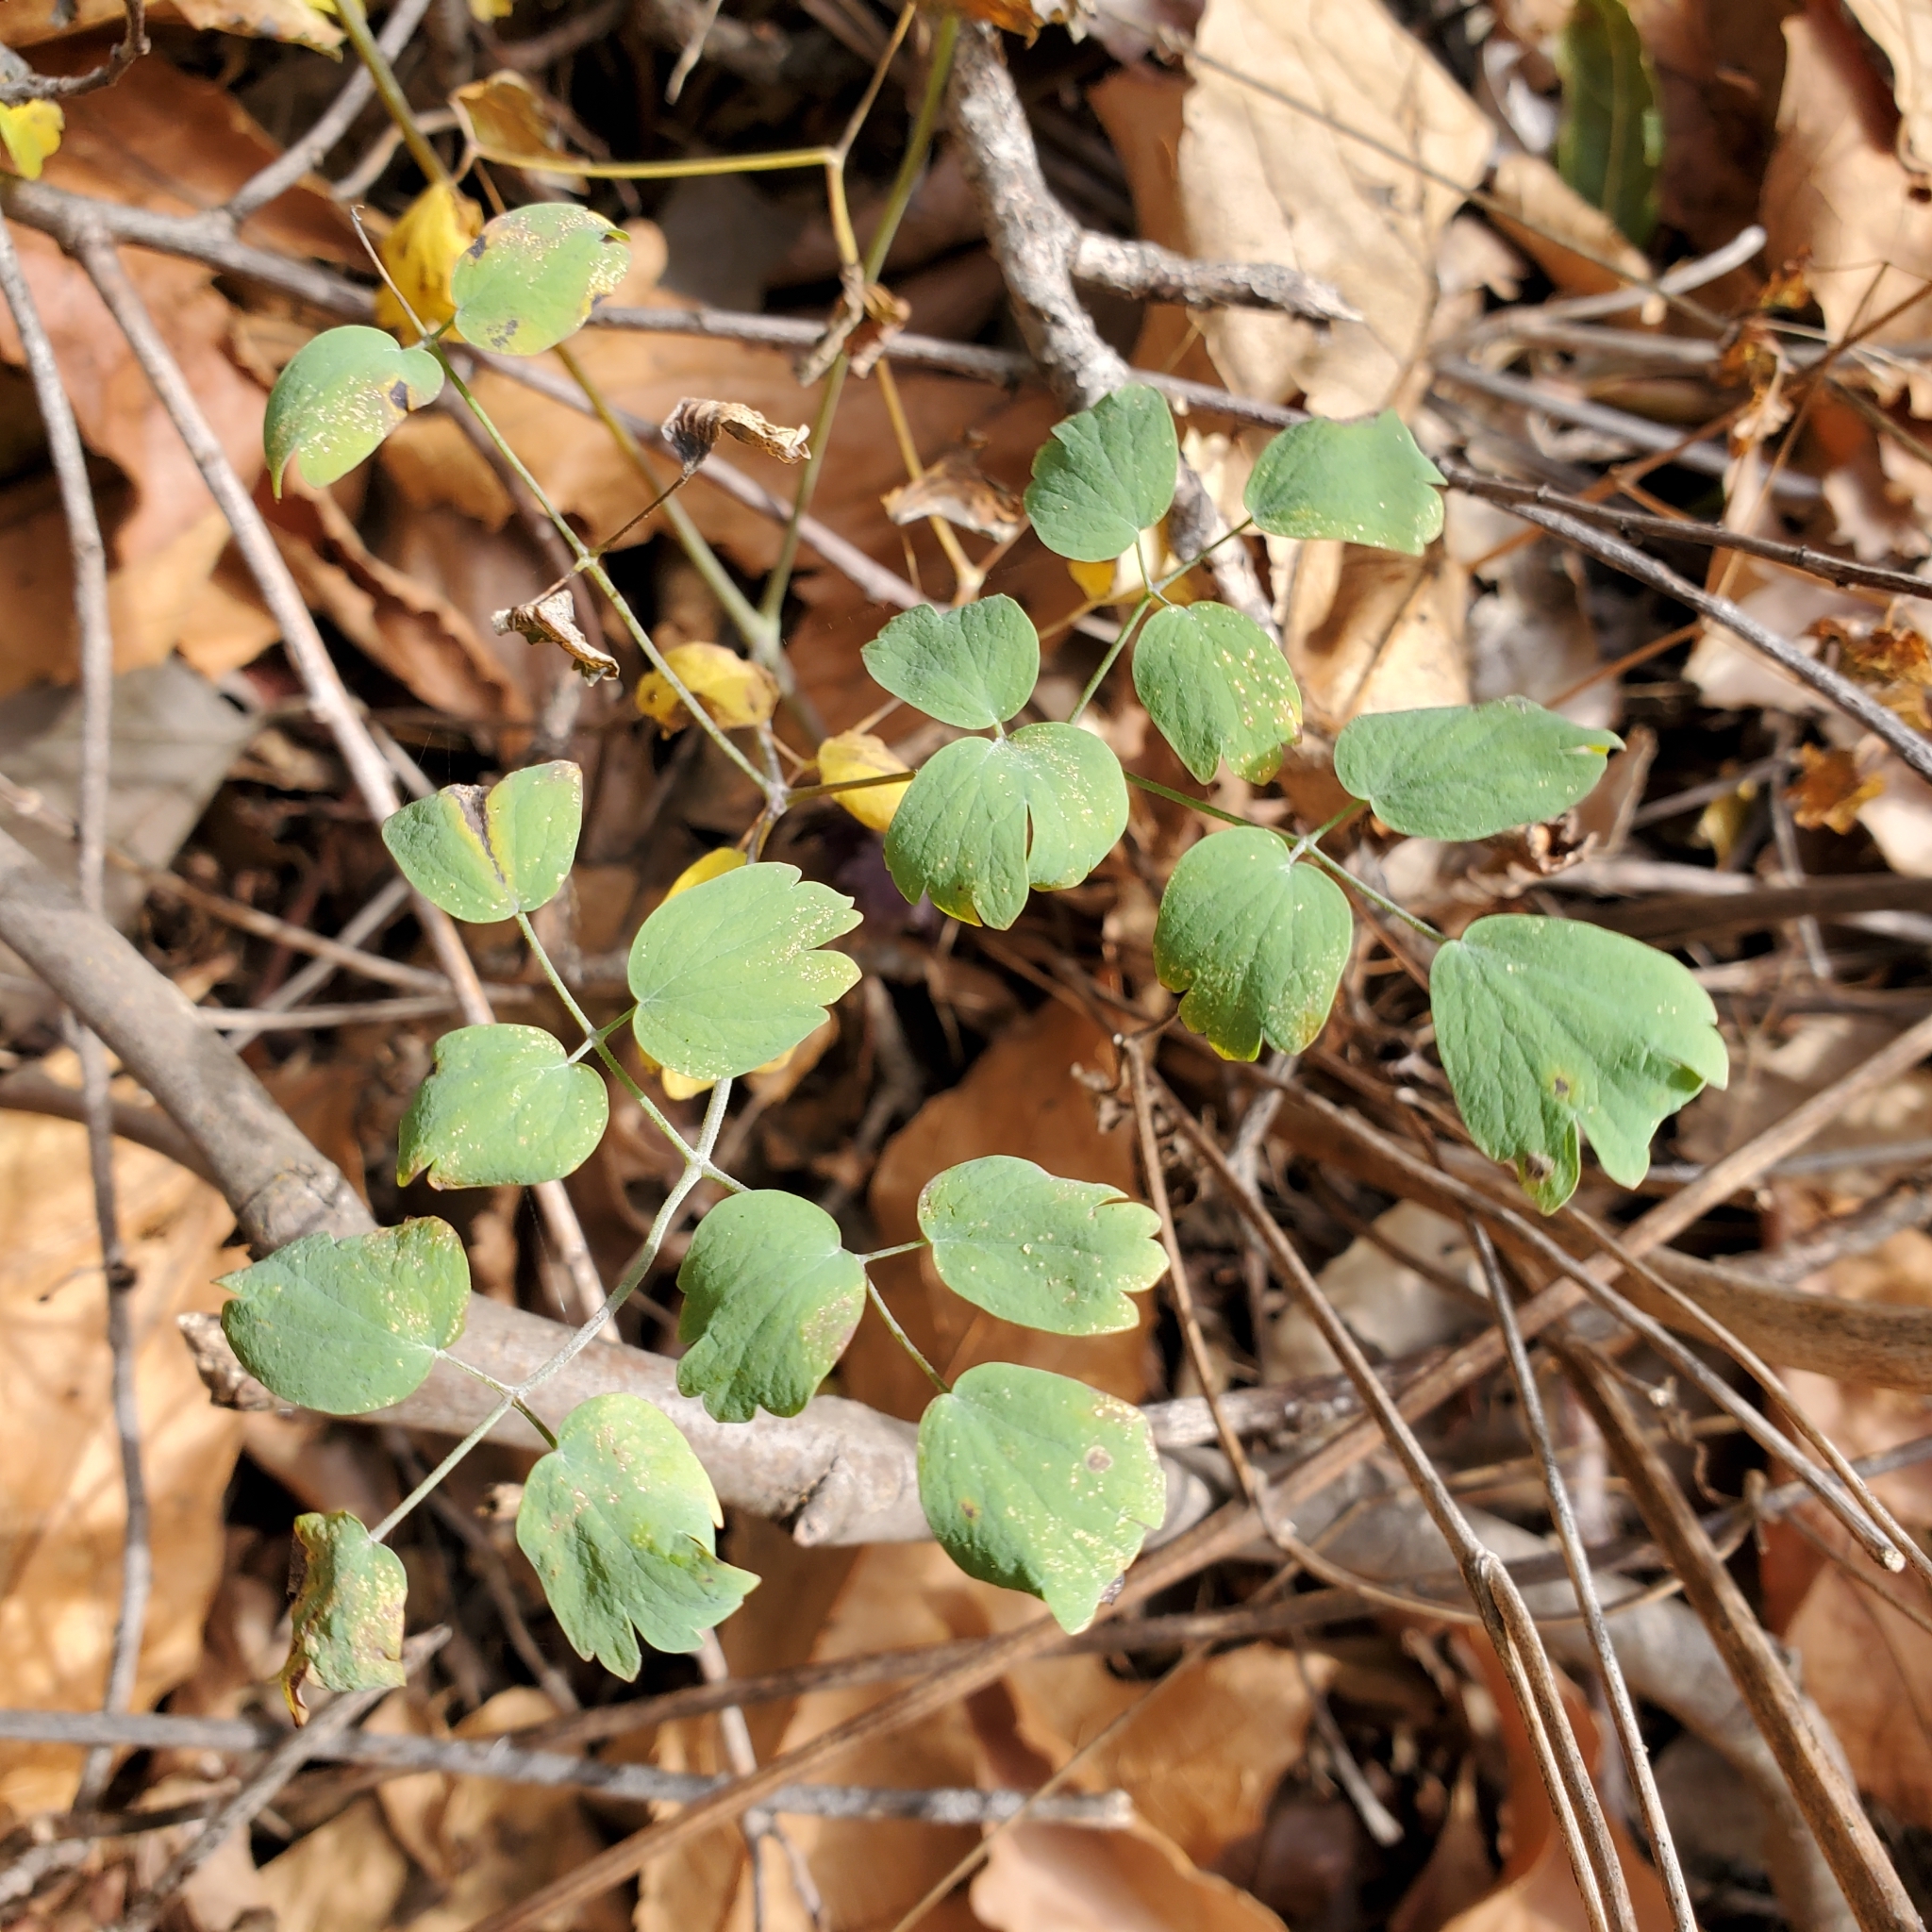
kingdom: Plantae
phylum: Tracheophyta
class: Magnoliopsida
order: Ranunculales
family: Ranunculaceae
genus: Thalictrum
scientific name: Thalictrum fendleri
